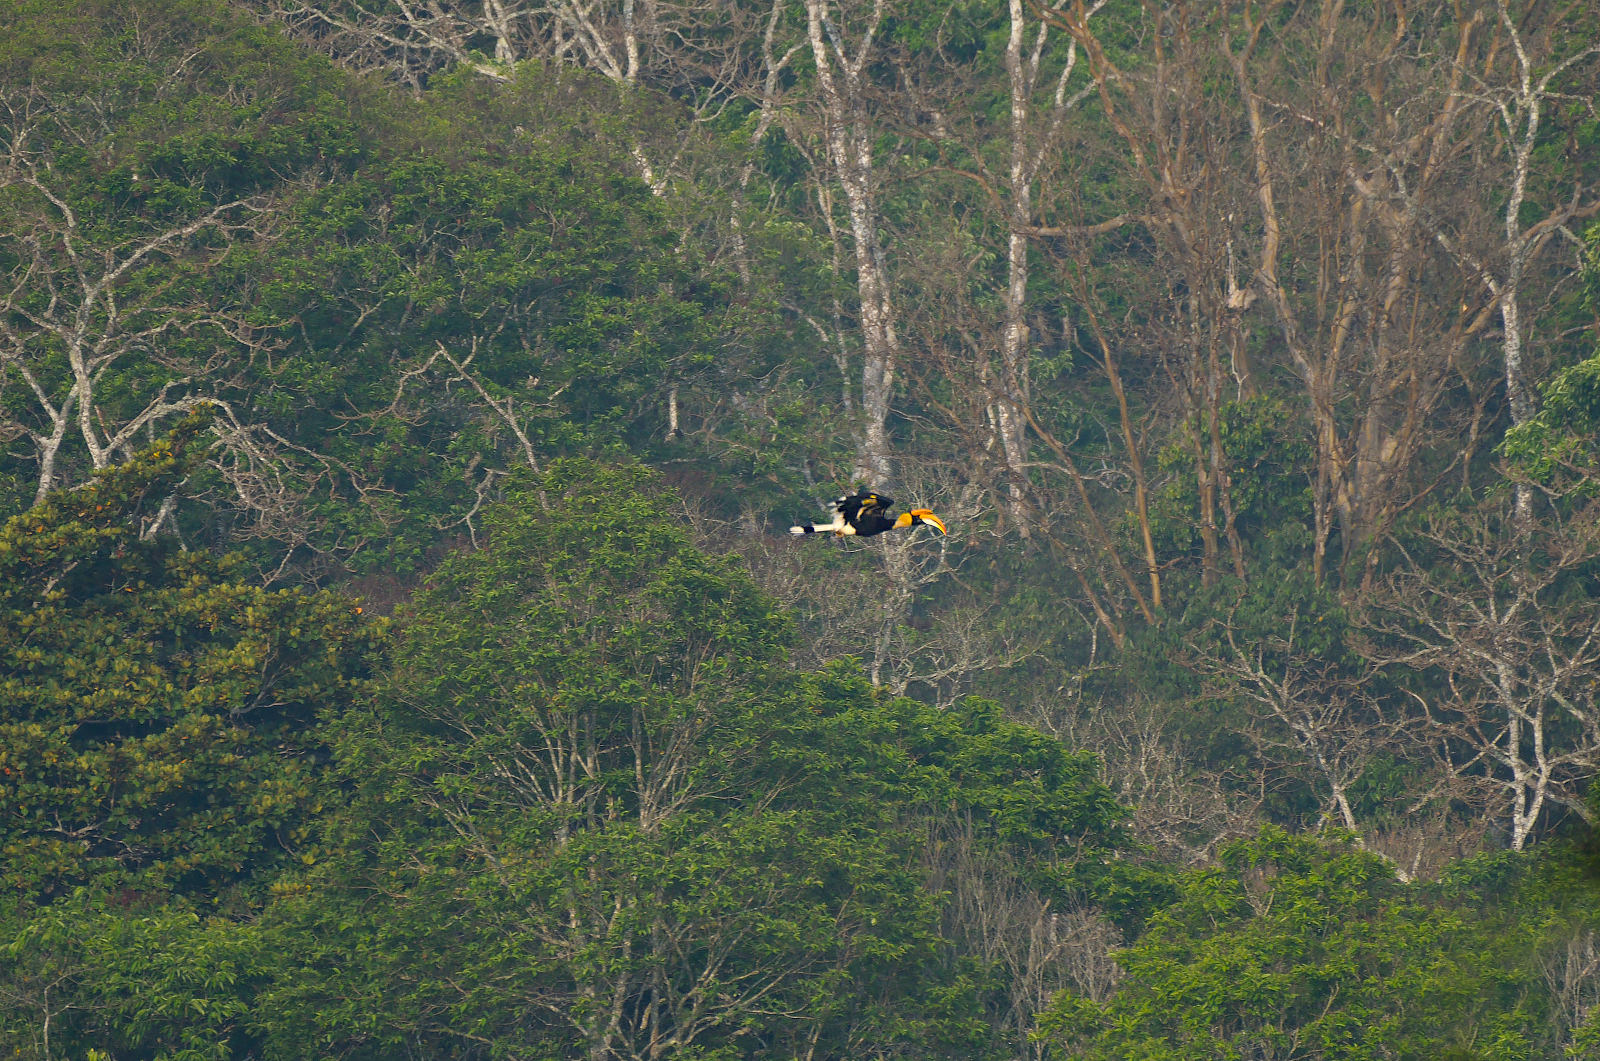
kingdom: Animalia
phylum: Chordata
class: Aves
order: Bucerotiformes
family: Bucerotidae
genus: Buceros
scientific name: Buceros bicornis
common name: Great hornbill
